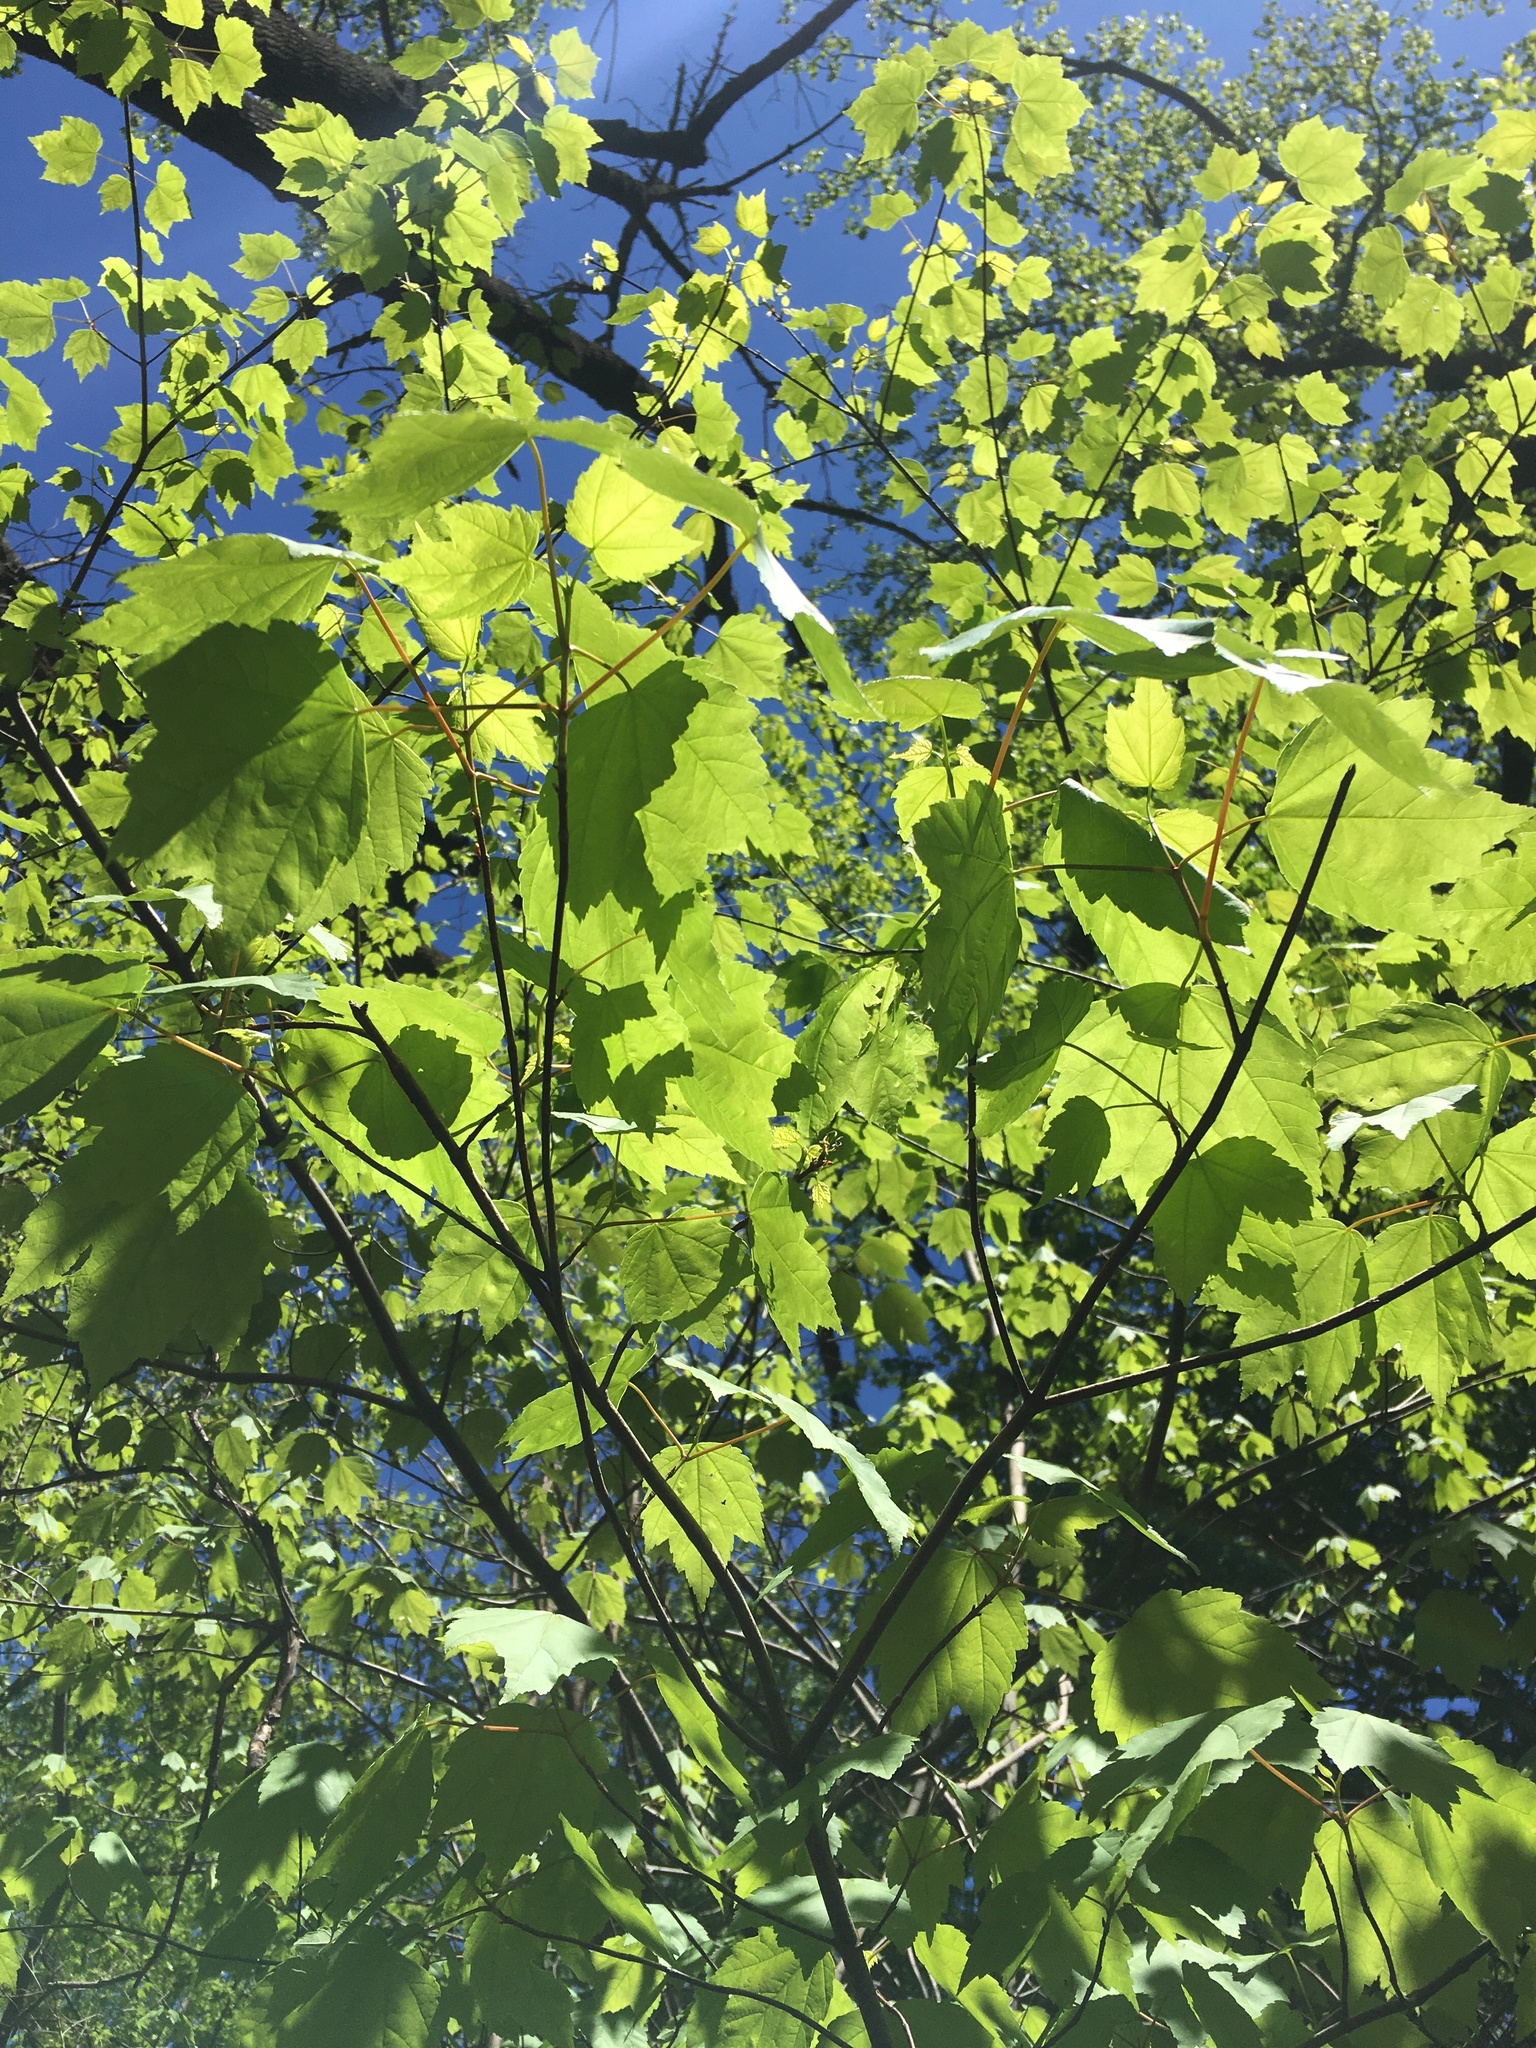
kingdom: Plantae
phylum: Tracheophyta
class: Magnoliopsida
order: Sapindales
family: Sapindaceae
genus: Acer
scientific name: Acer rubrum
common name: Red maple
